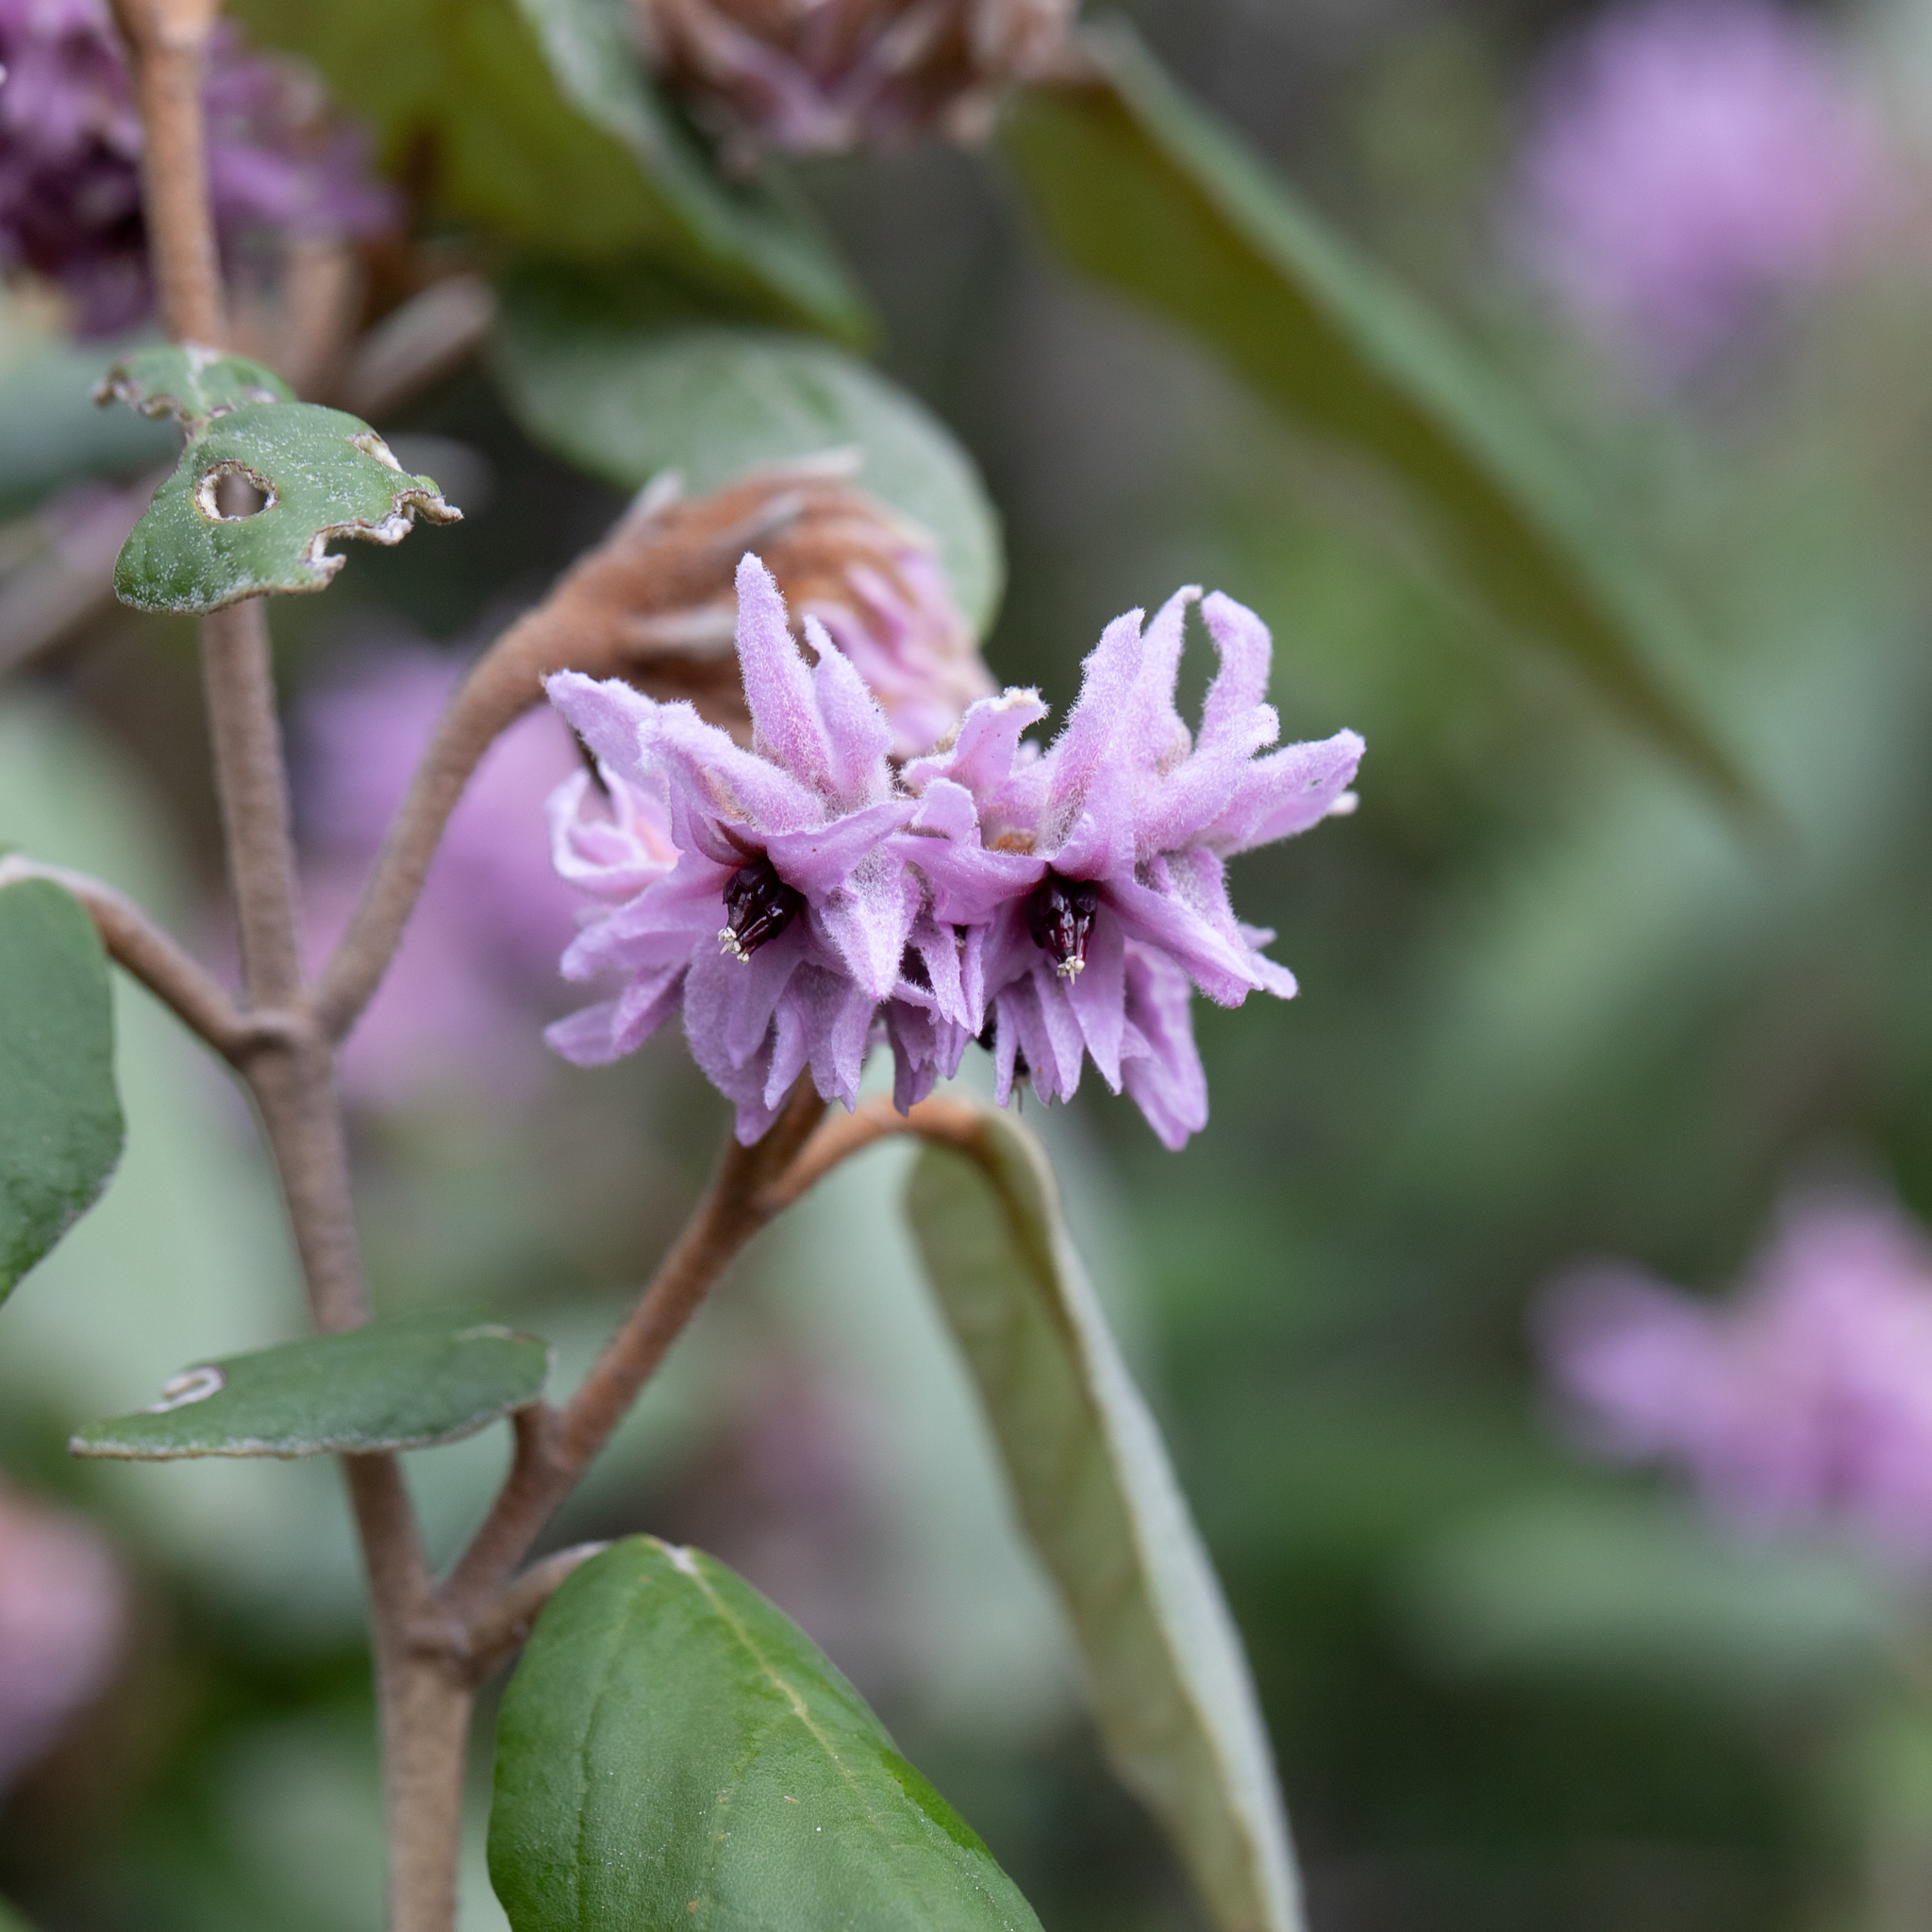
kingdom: Plantae
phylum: Tracheophyta
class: Magnoliopsida
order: Malvales
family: Malvaceae
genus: Lasiopetalum
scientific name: Lasiopetalum discolor
